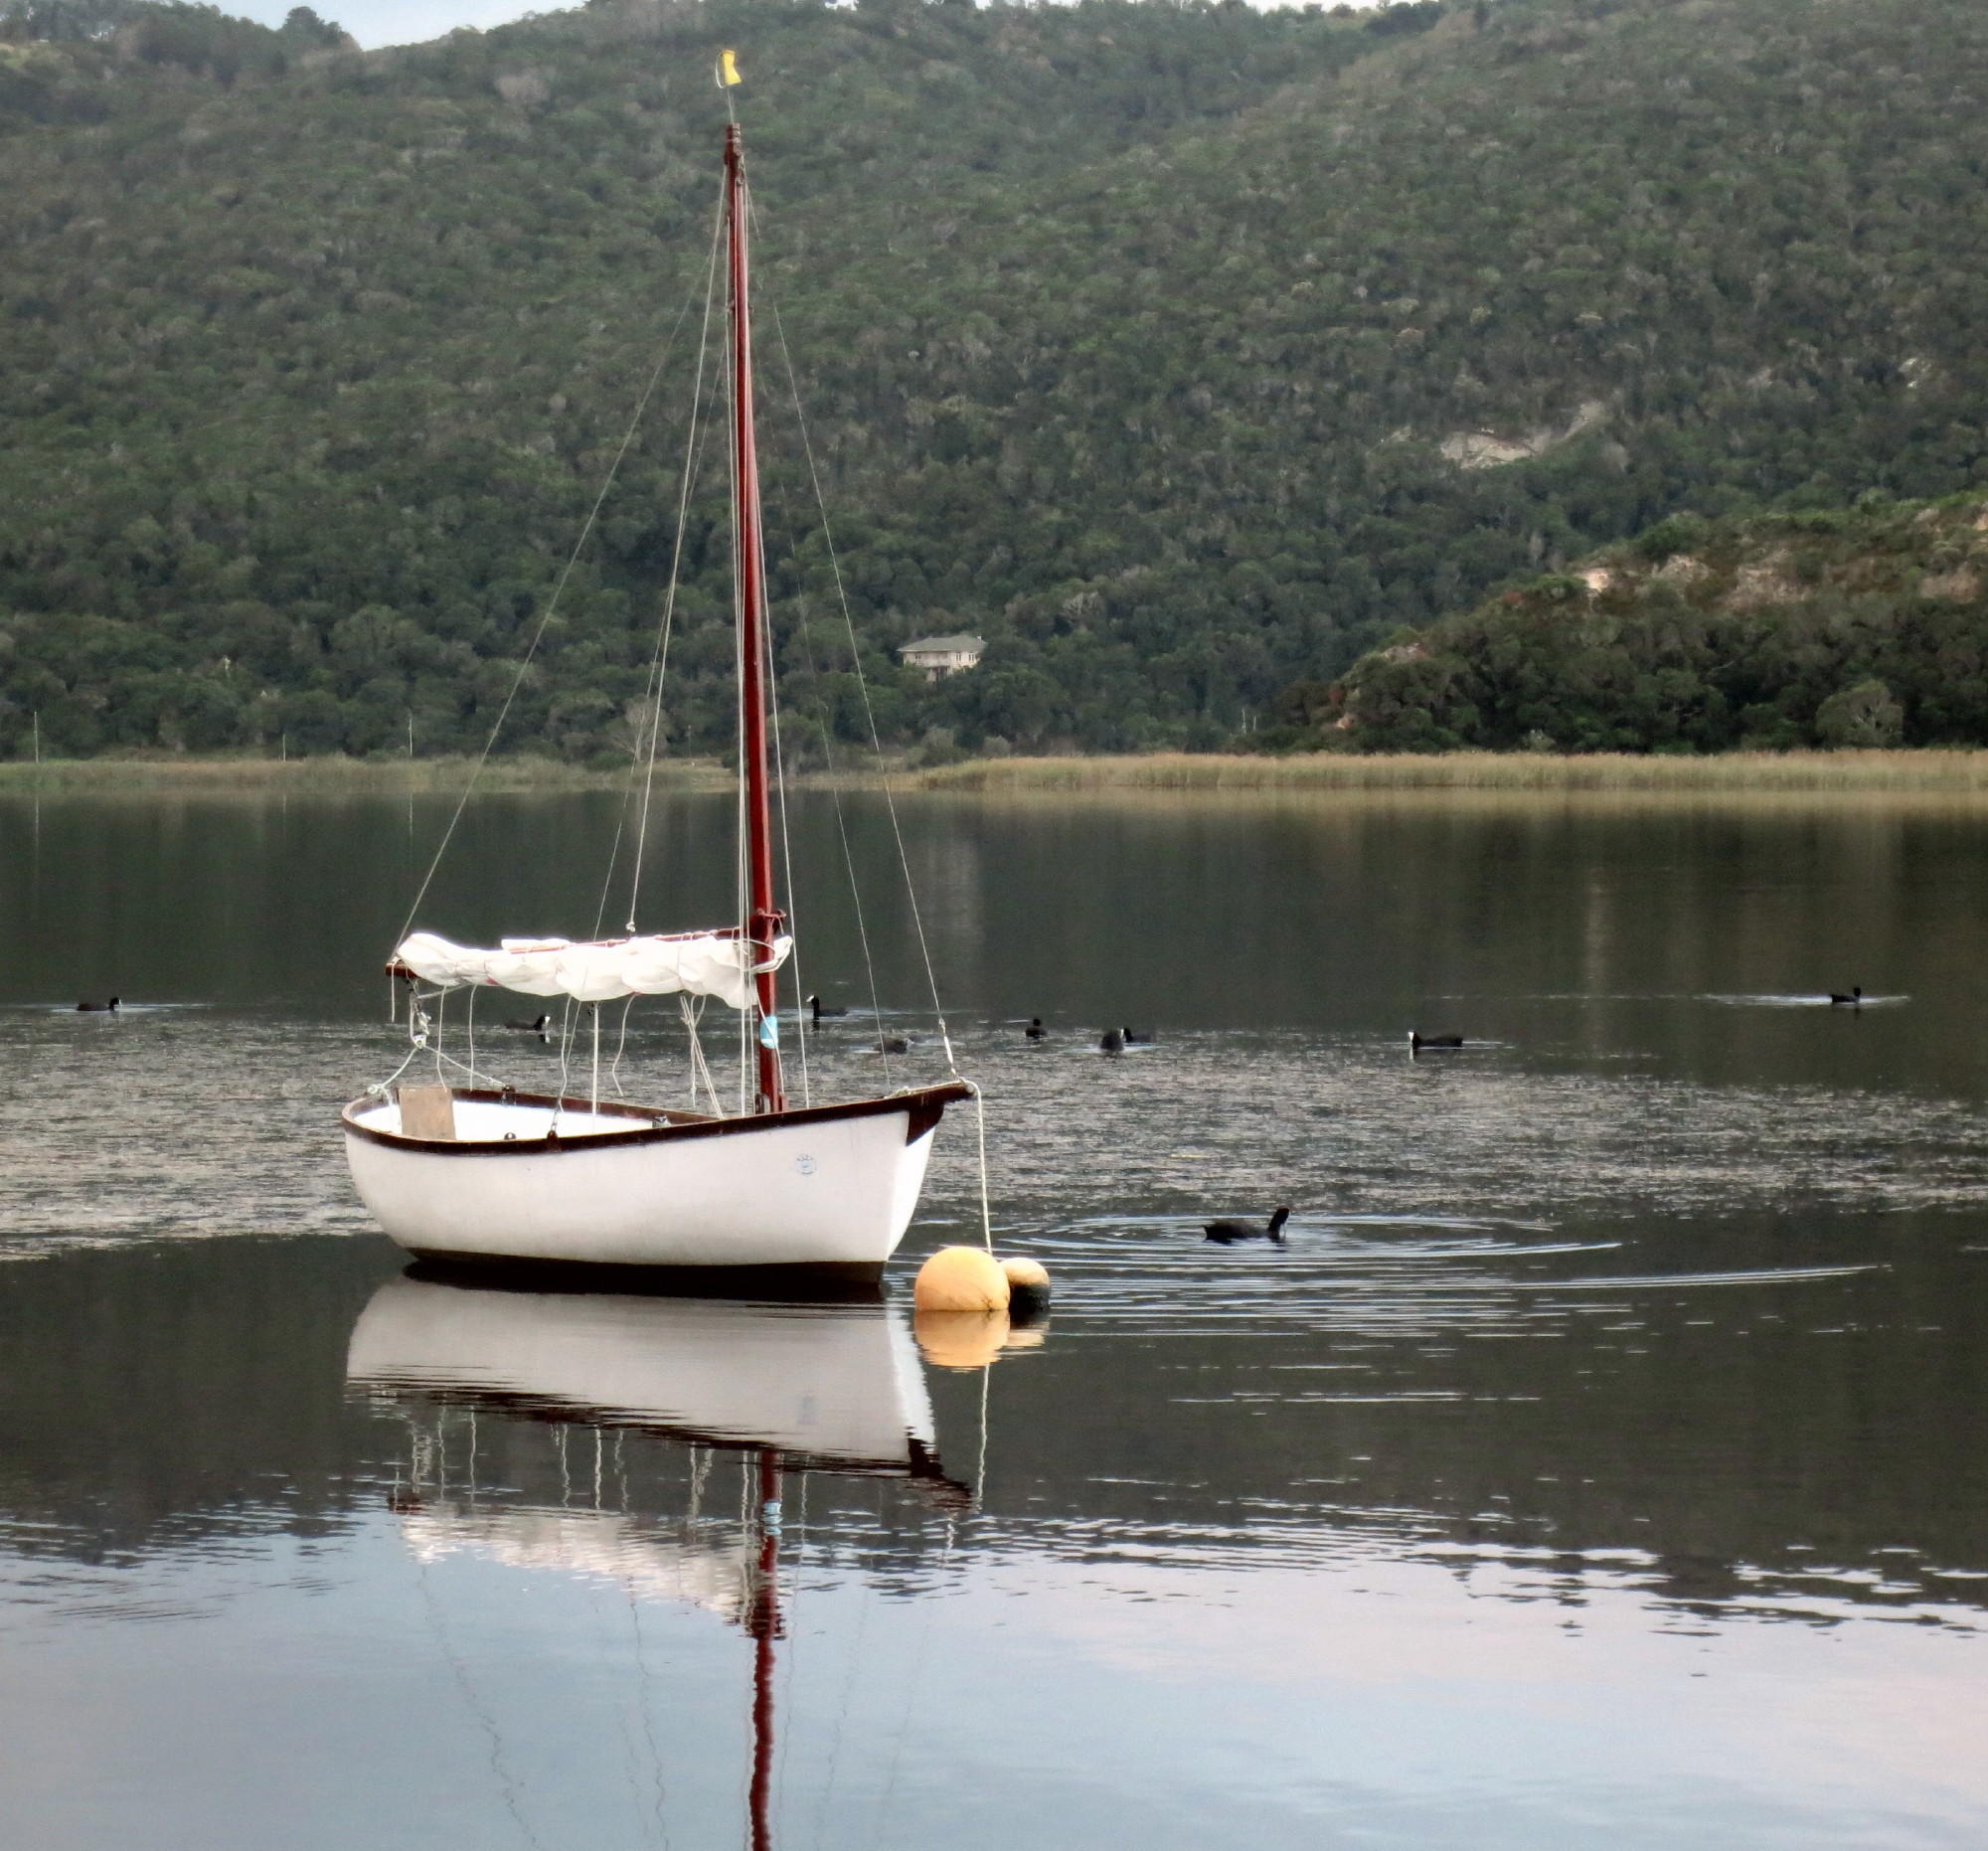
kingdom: Animalia
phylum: Chordata
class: Aves
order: Gruiformes
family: Rallidae
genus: Fulica
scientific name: Fulica cristata
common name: Red-knobbed coot
